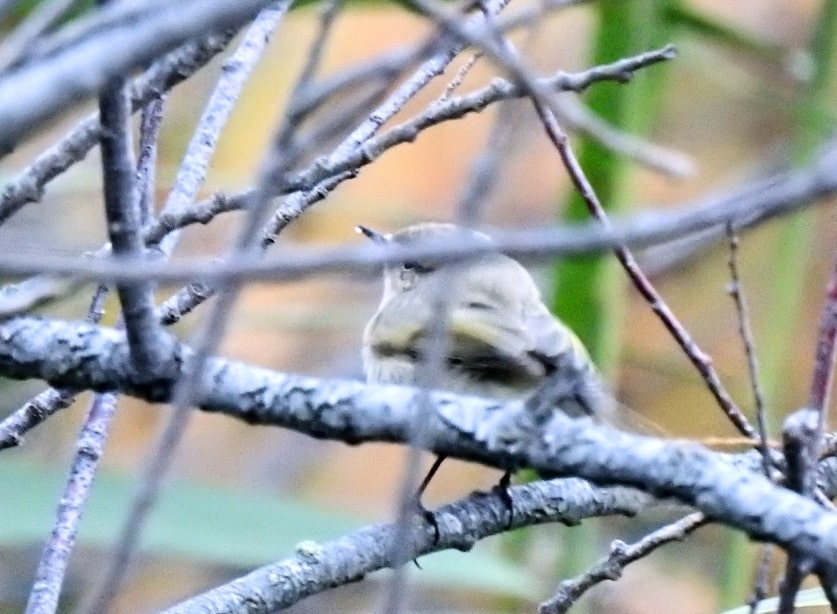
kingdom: Animalia
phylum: Chordata
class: Aves
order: Passeriformes
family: Phylloscopidae
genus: Phylloscopus
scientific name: Phylloscopus collybita
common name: Common chiffchaff
